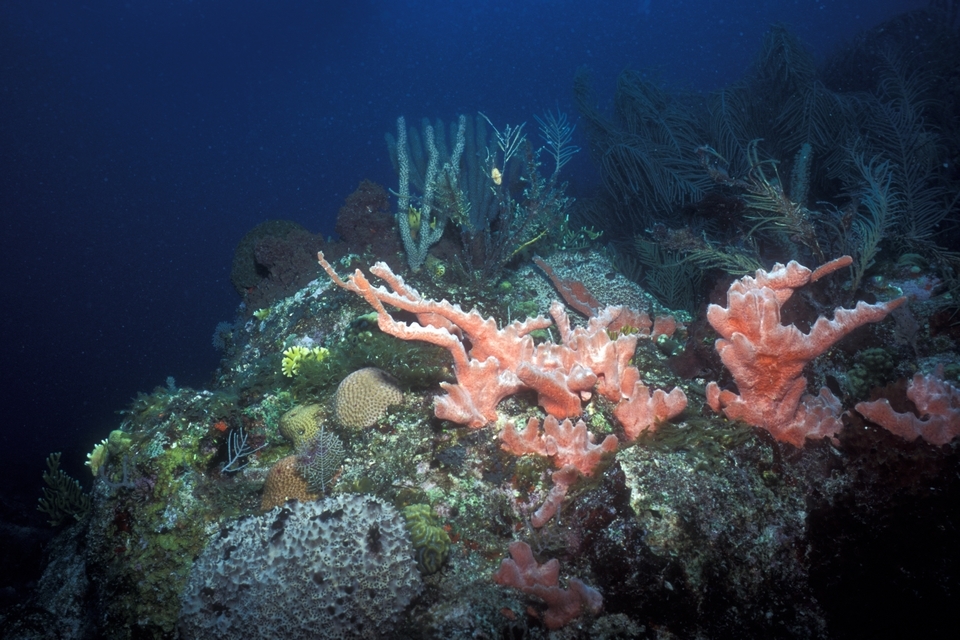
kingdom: Animalia
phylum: Porifera
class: Demospongiae
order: Poecilosclerida
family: Desmacididae
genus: Desmapsamma
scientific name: Desmapsamma anchorata
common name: Lumpy overgrowing sponge
